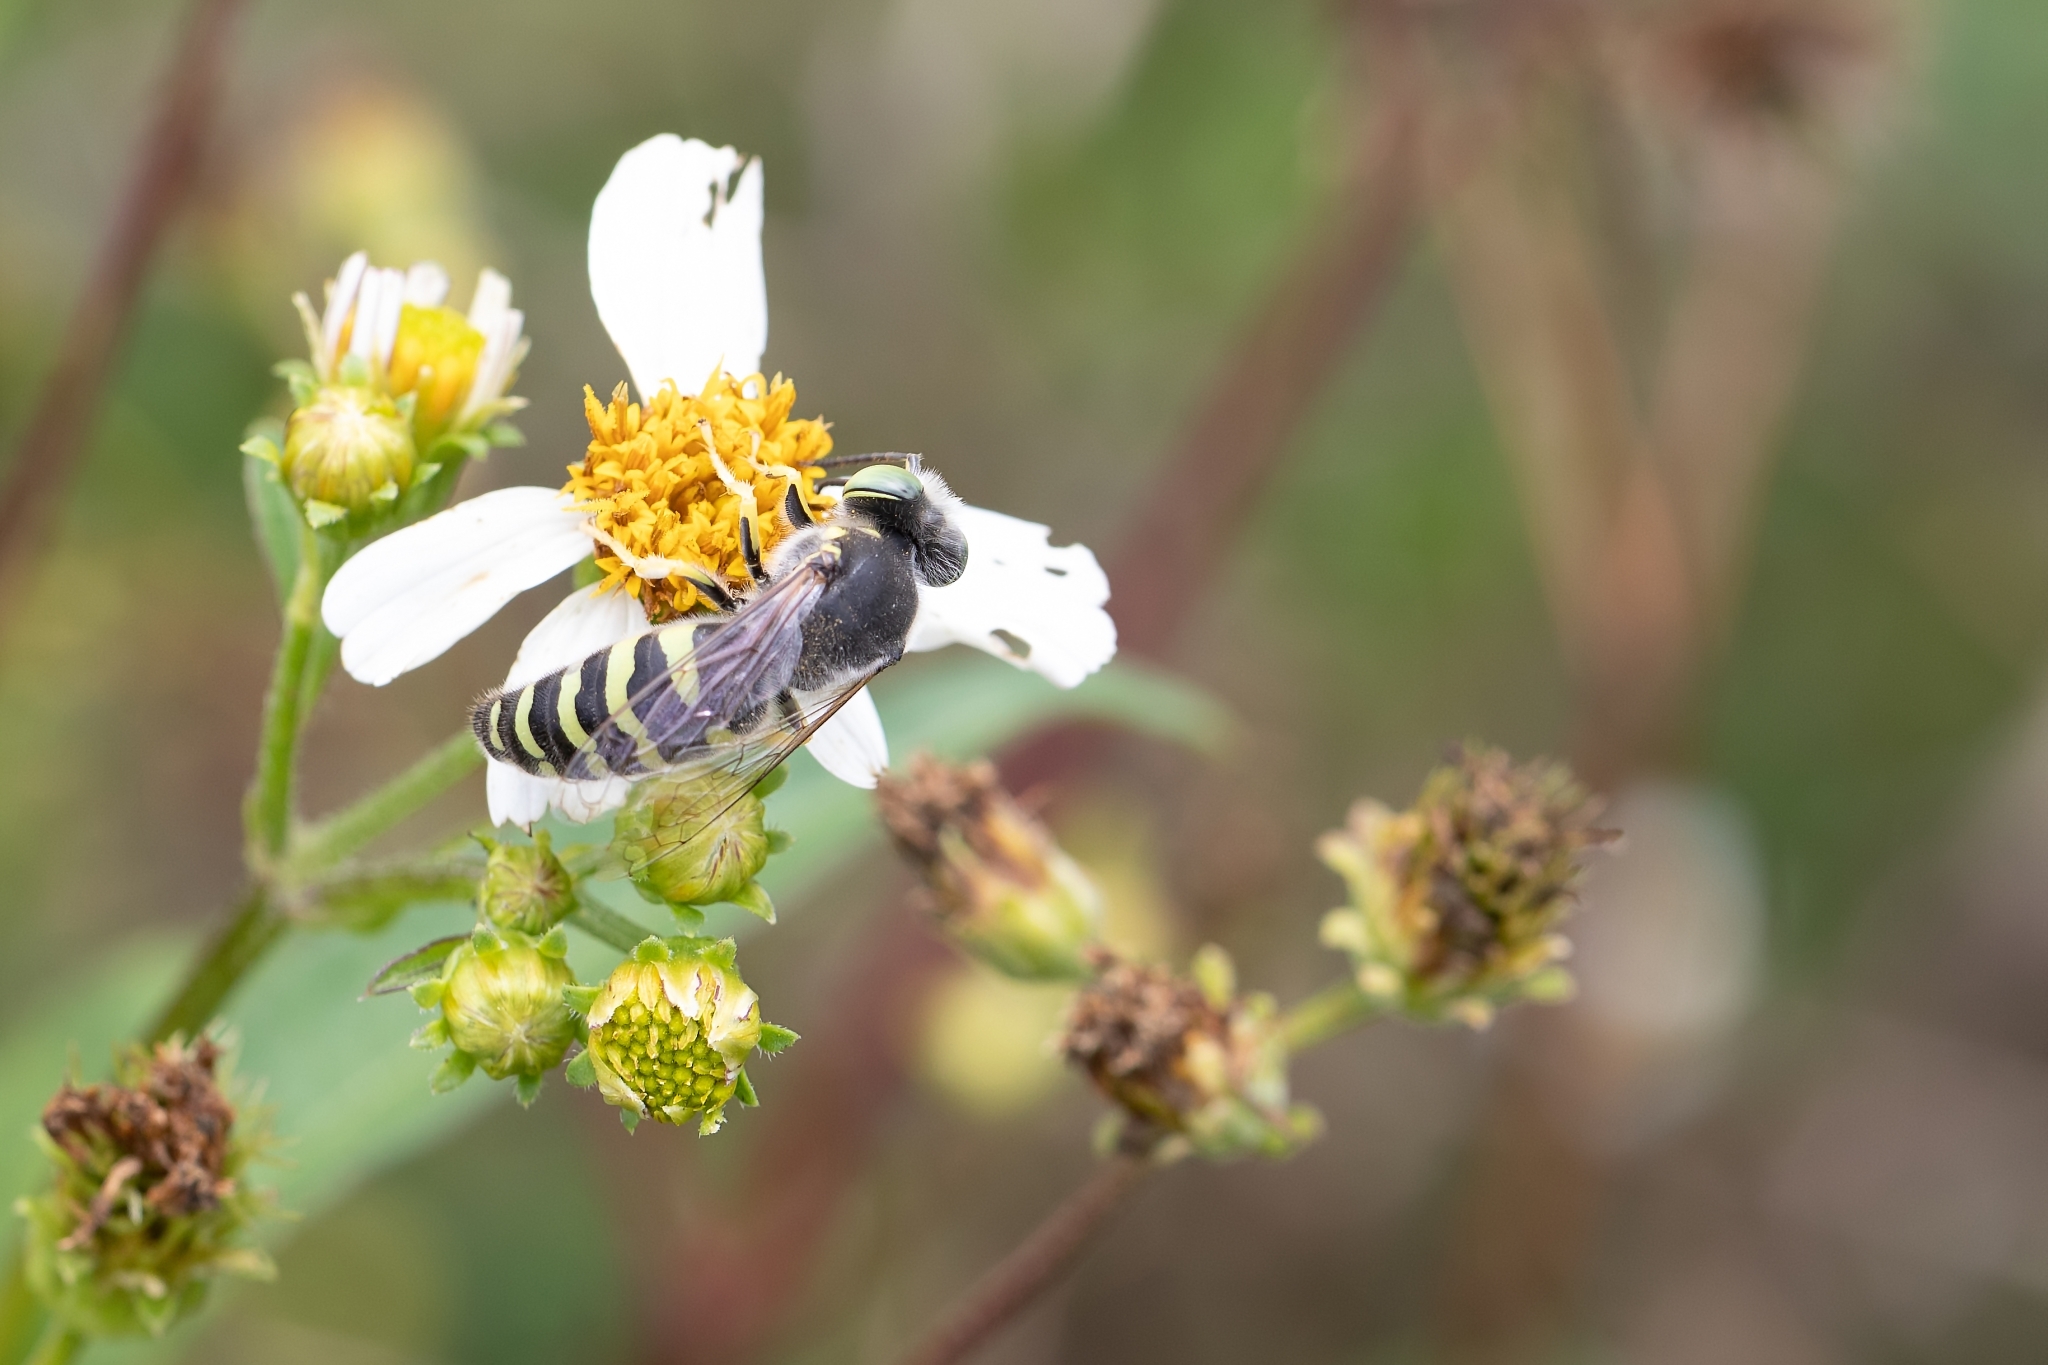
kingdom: Animalia
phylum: Arthropoda
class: Insecta
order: Hymenoptera
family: Crabronidae
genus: Bembix
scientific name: Bembix americana
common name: American sand wasp
